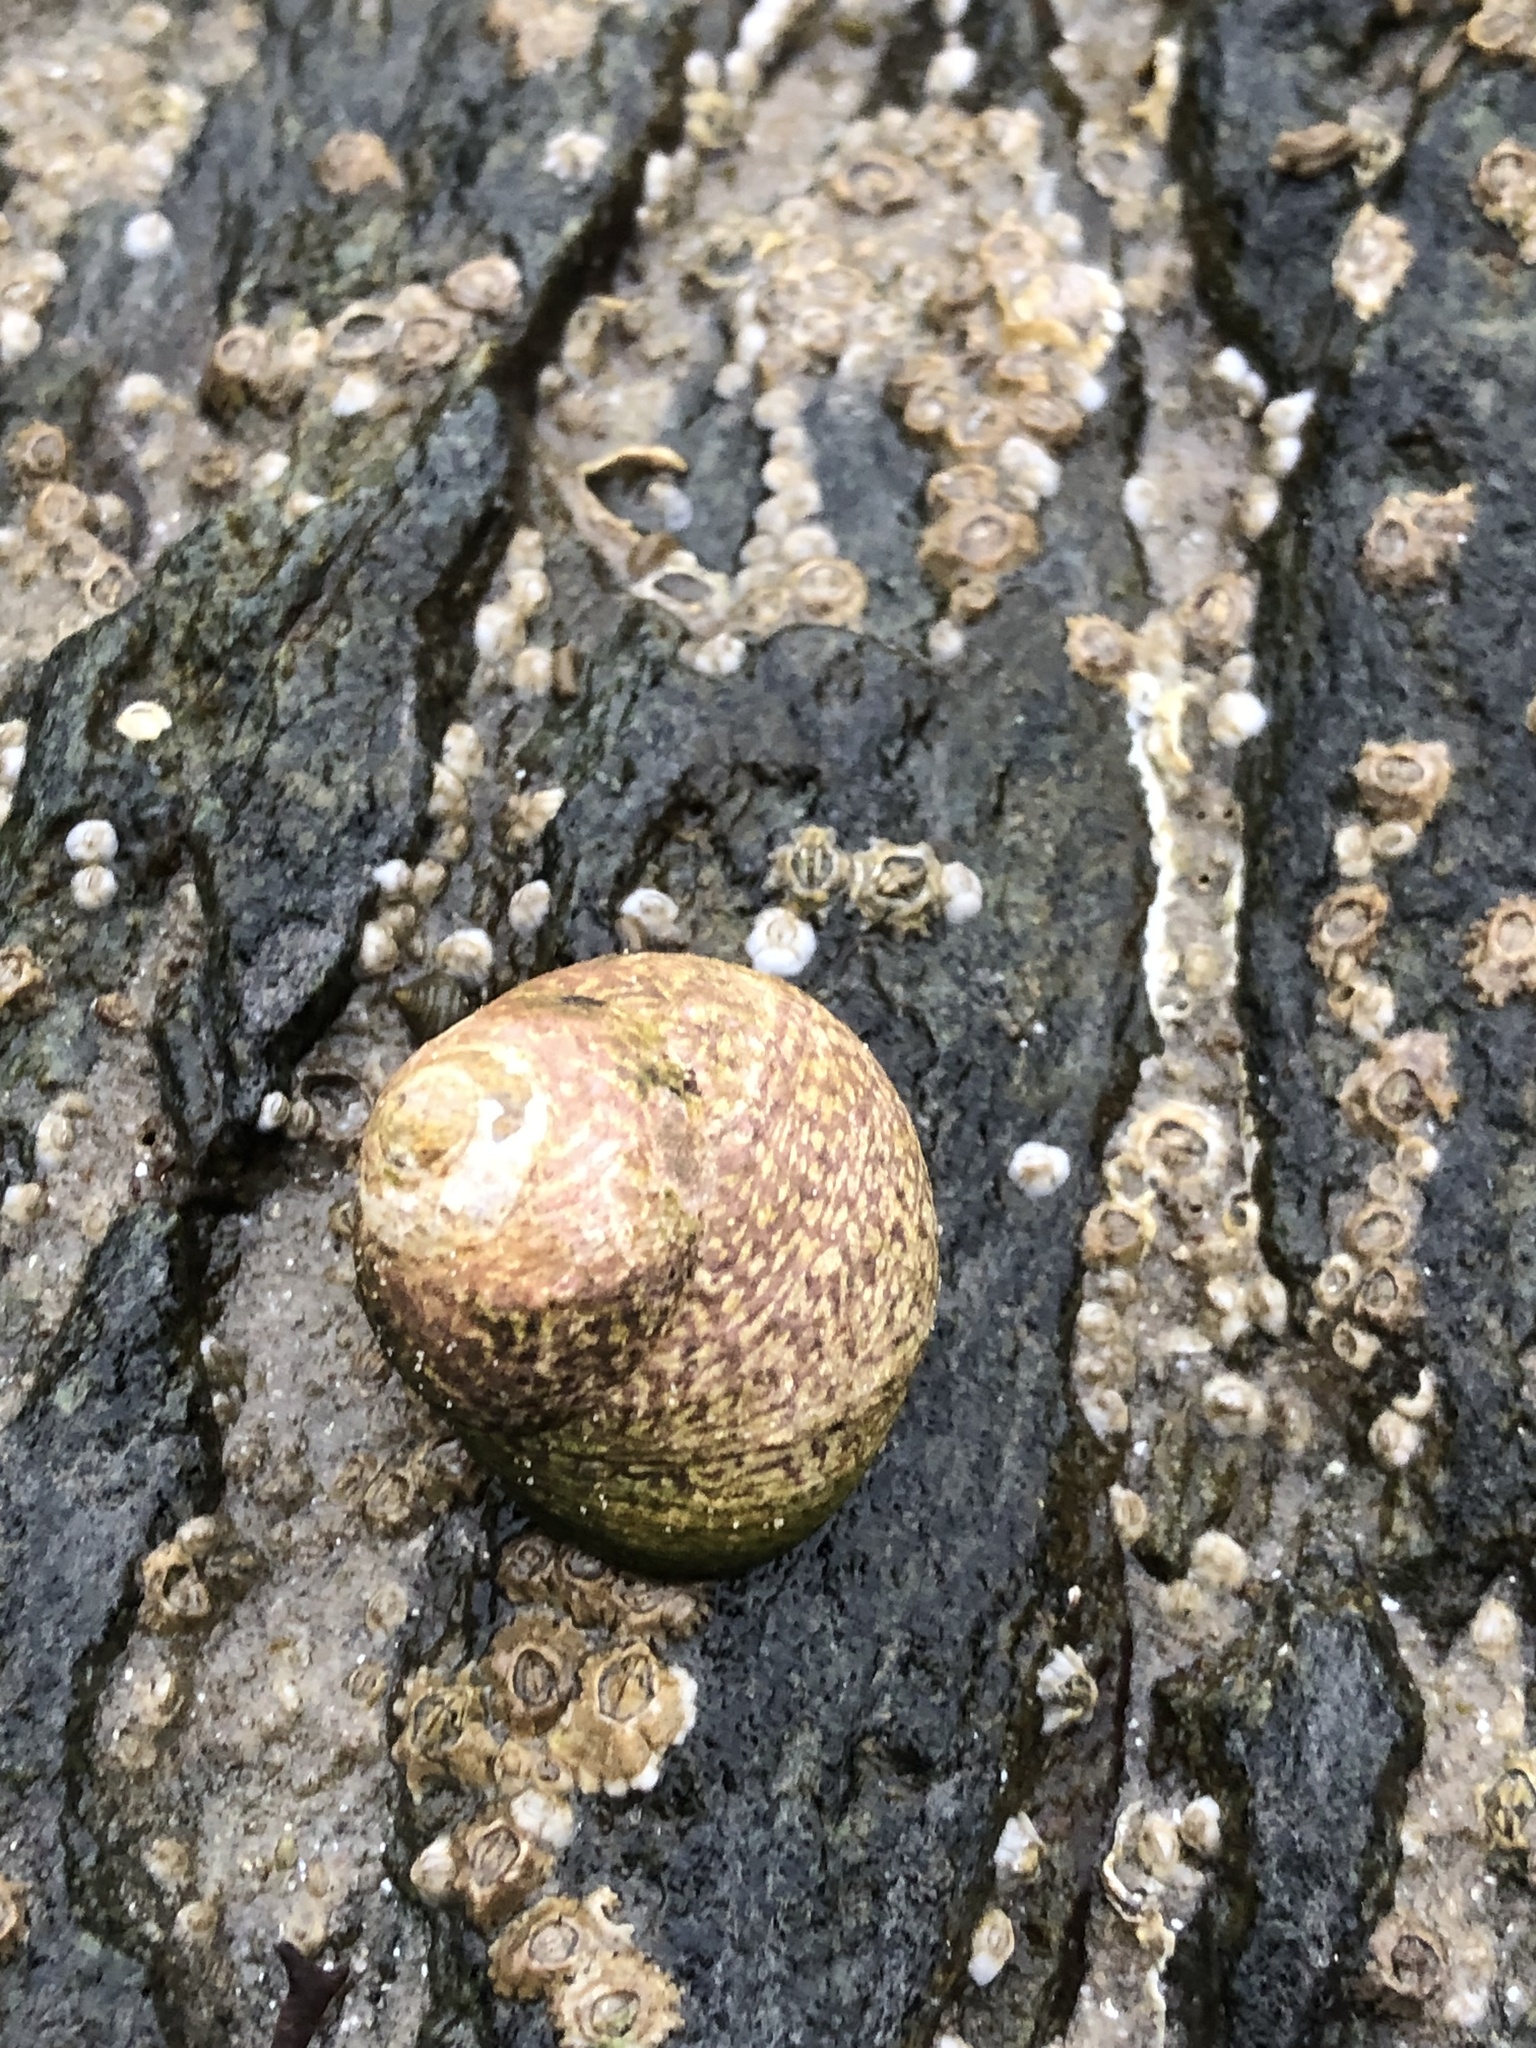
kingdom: Animalia
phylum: Mollusca
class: Gastropoda
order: Trochida
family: Trochidae
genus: Phorcus
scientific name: Phorcus lineatus
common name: Toothed top shell
